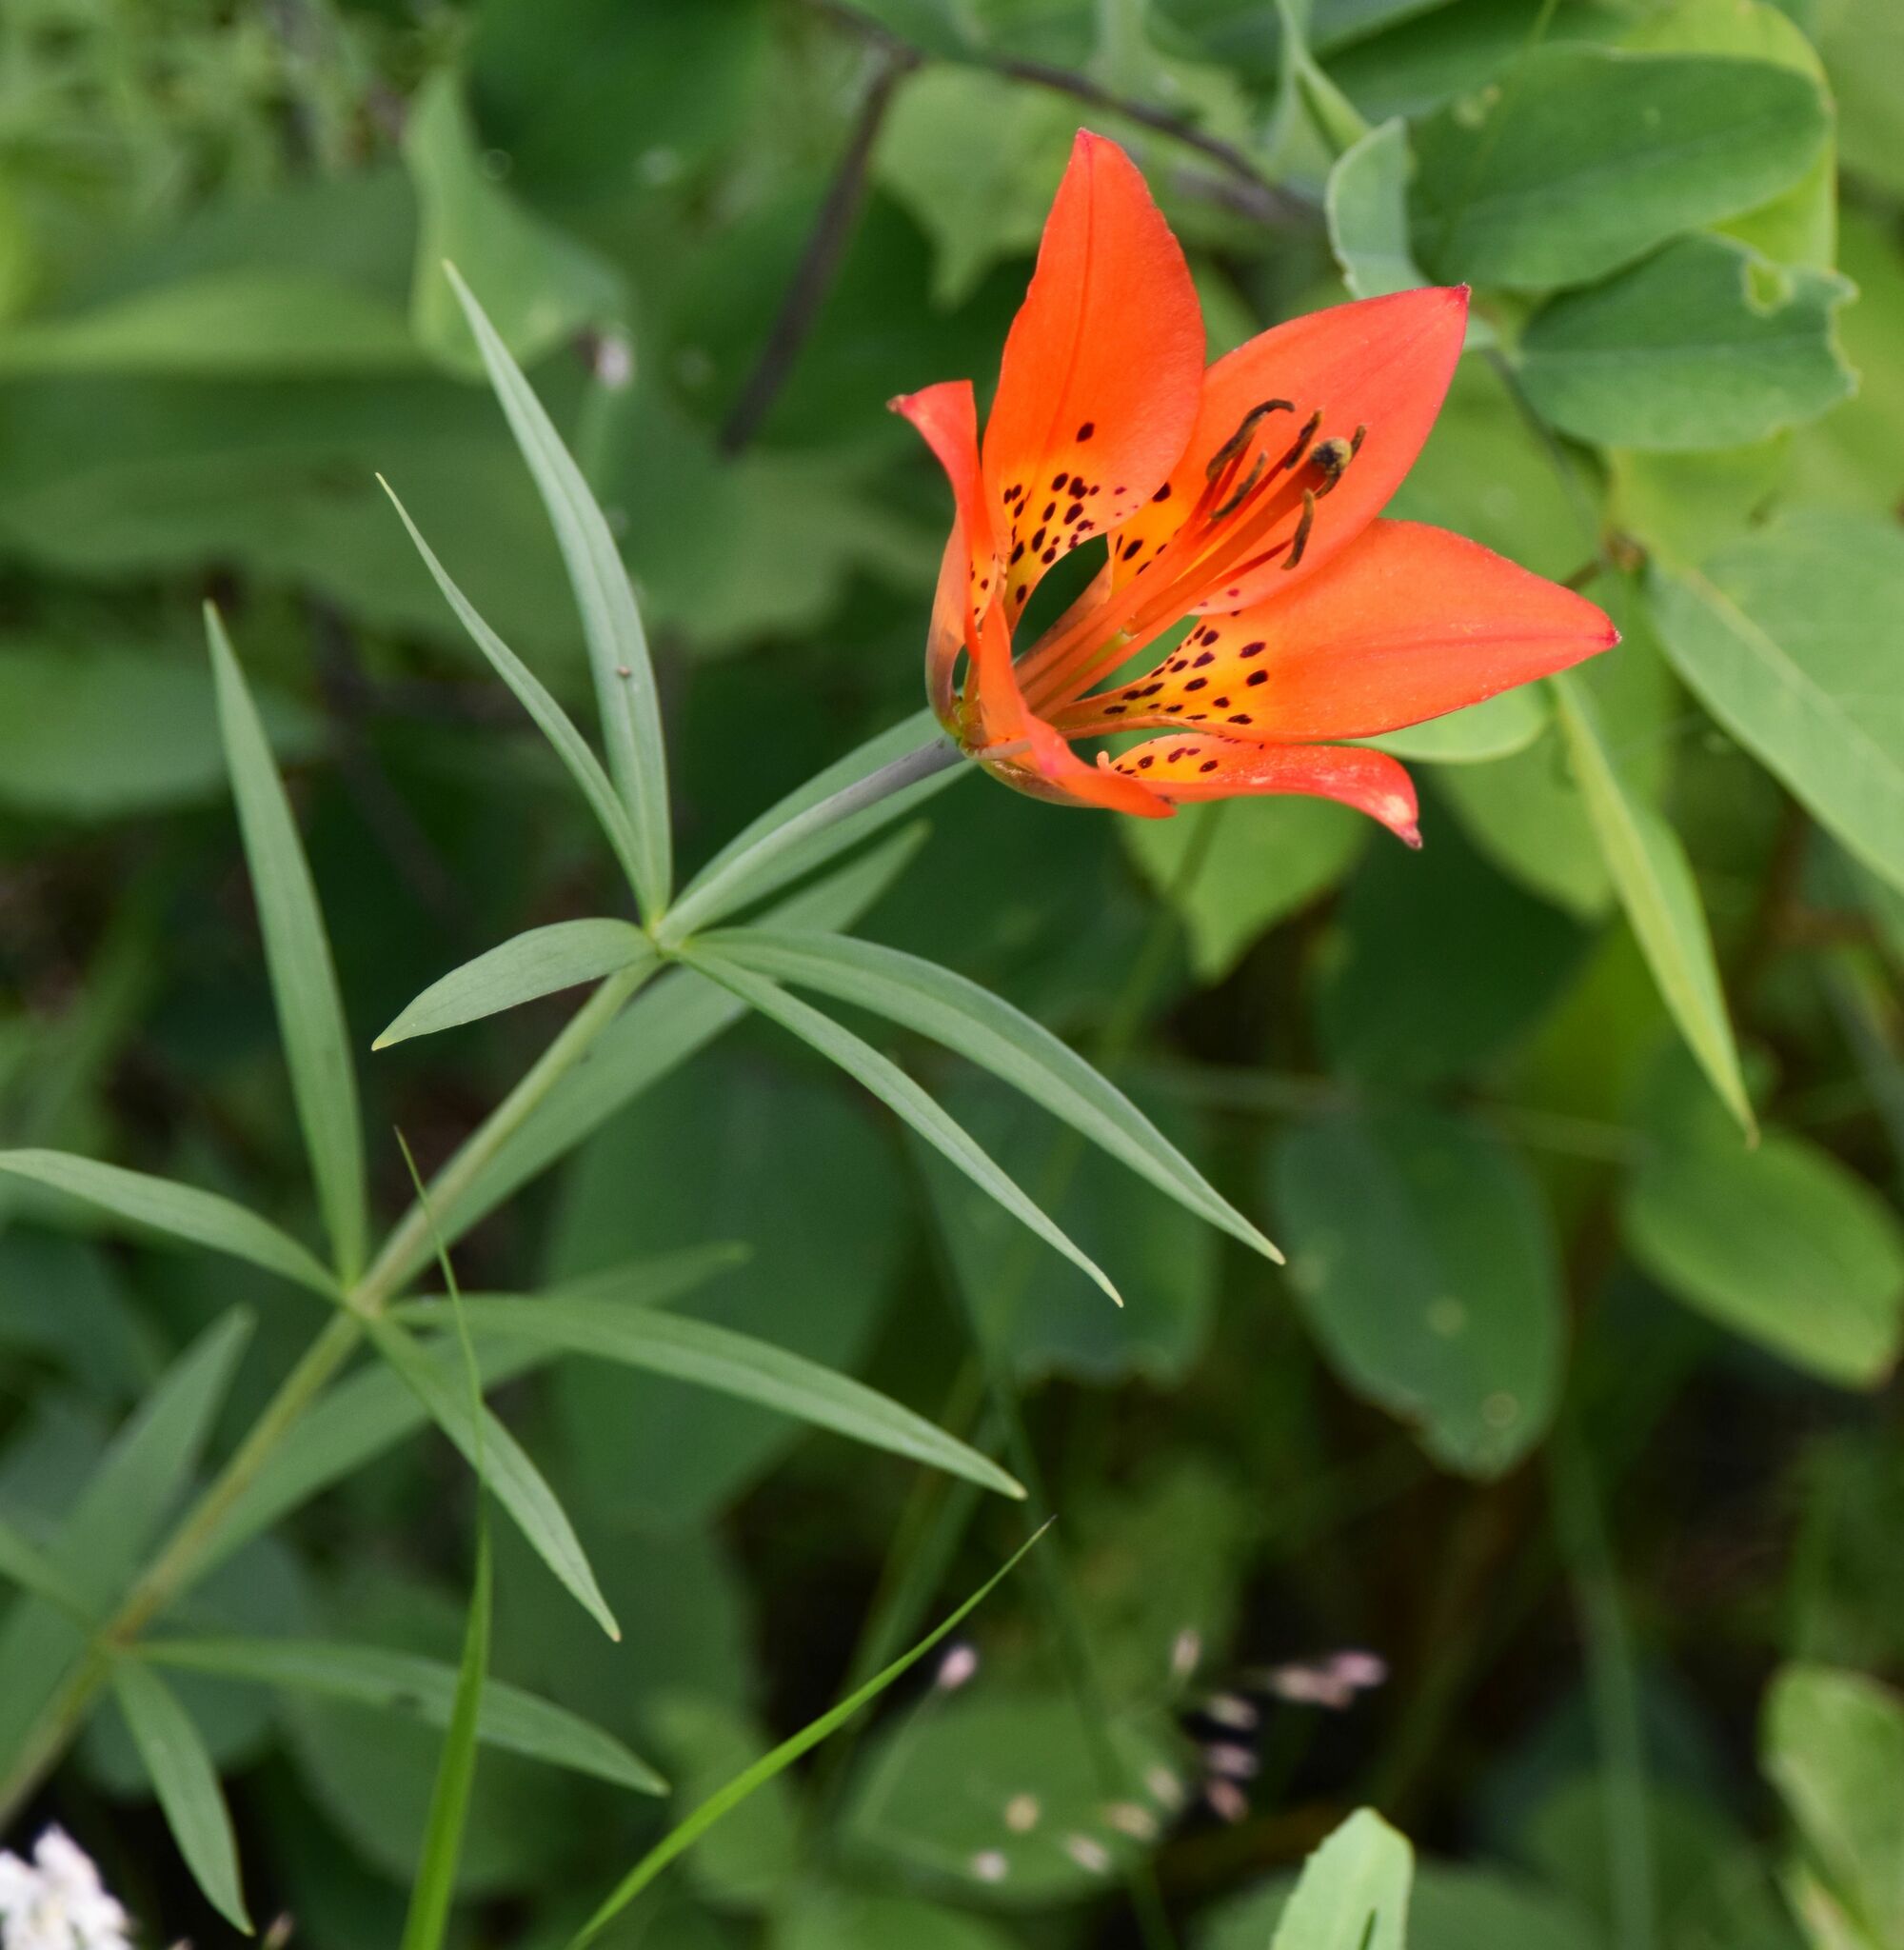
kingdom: Plantae
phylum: Tracheophyta
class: Liliopsida
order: Liliales
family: Liliaceae
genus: Lilium
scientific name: Lilium philadelphicum
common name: Red lily
